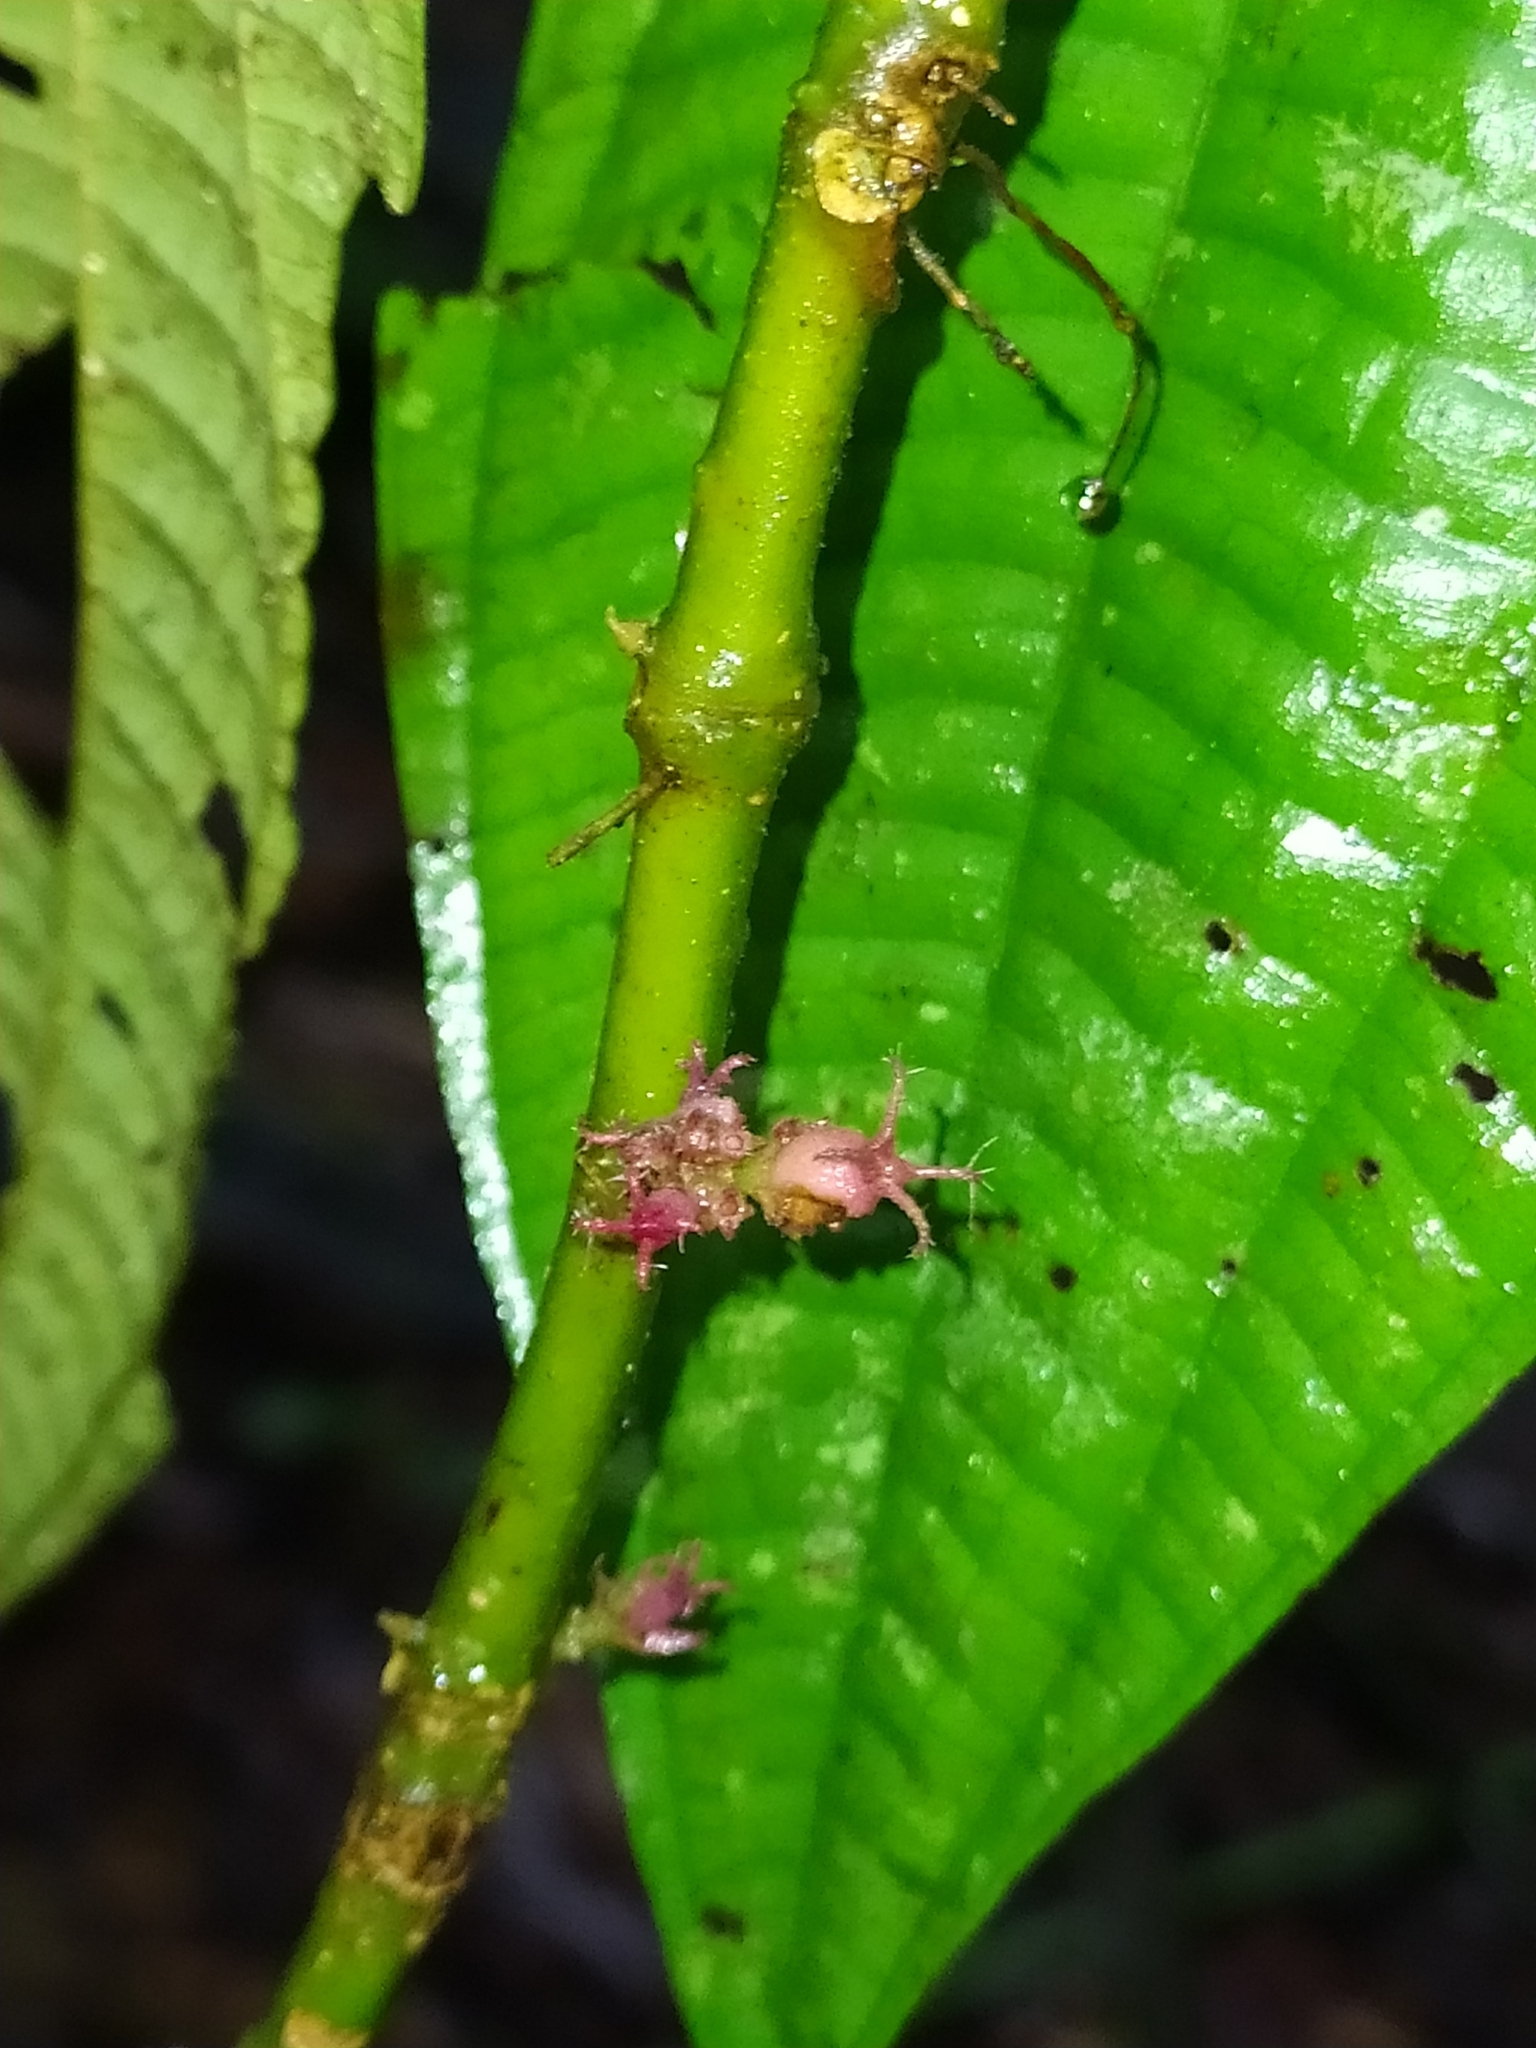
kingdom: Plantae
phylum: Tracheophyta
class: Magnoliopsida
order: Myrtales
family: Melastomataceae
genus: Miconia
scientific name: Miconia trichocalyx
